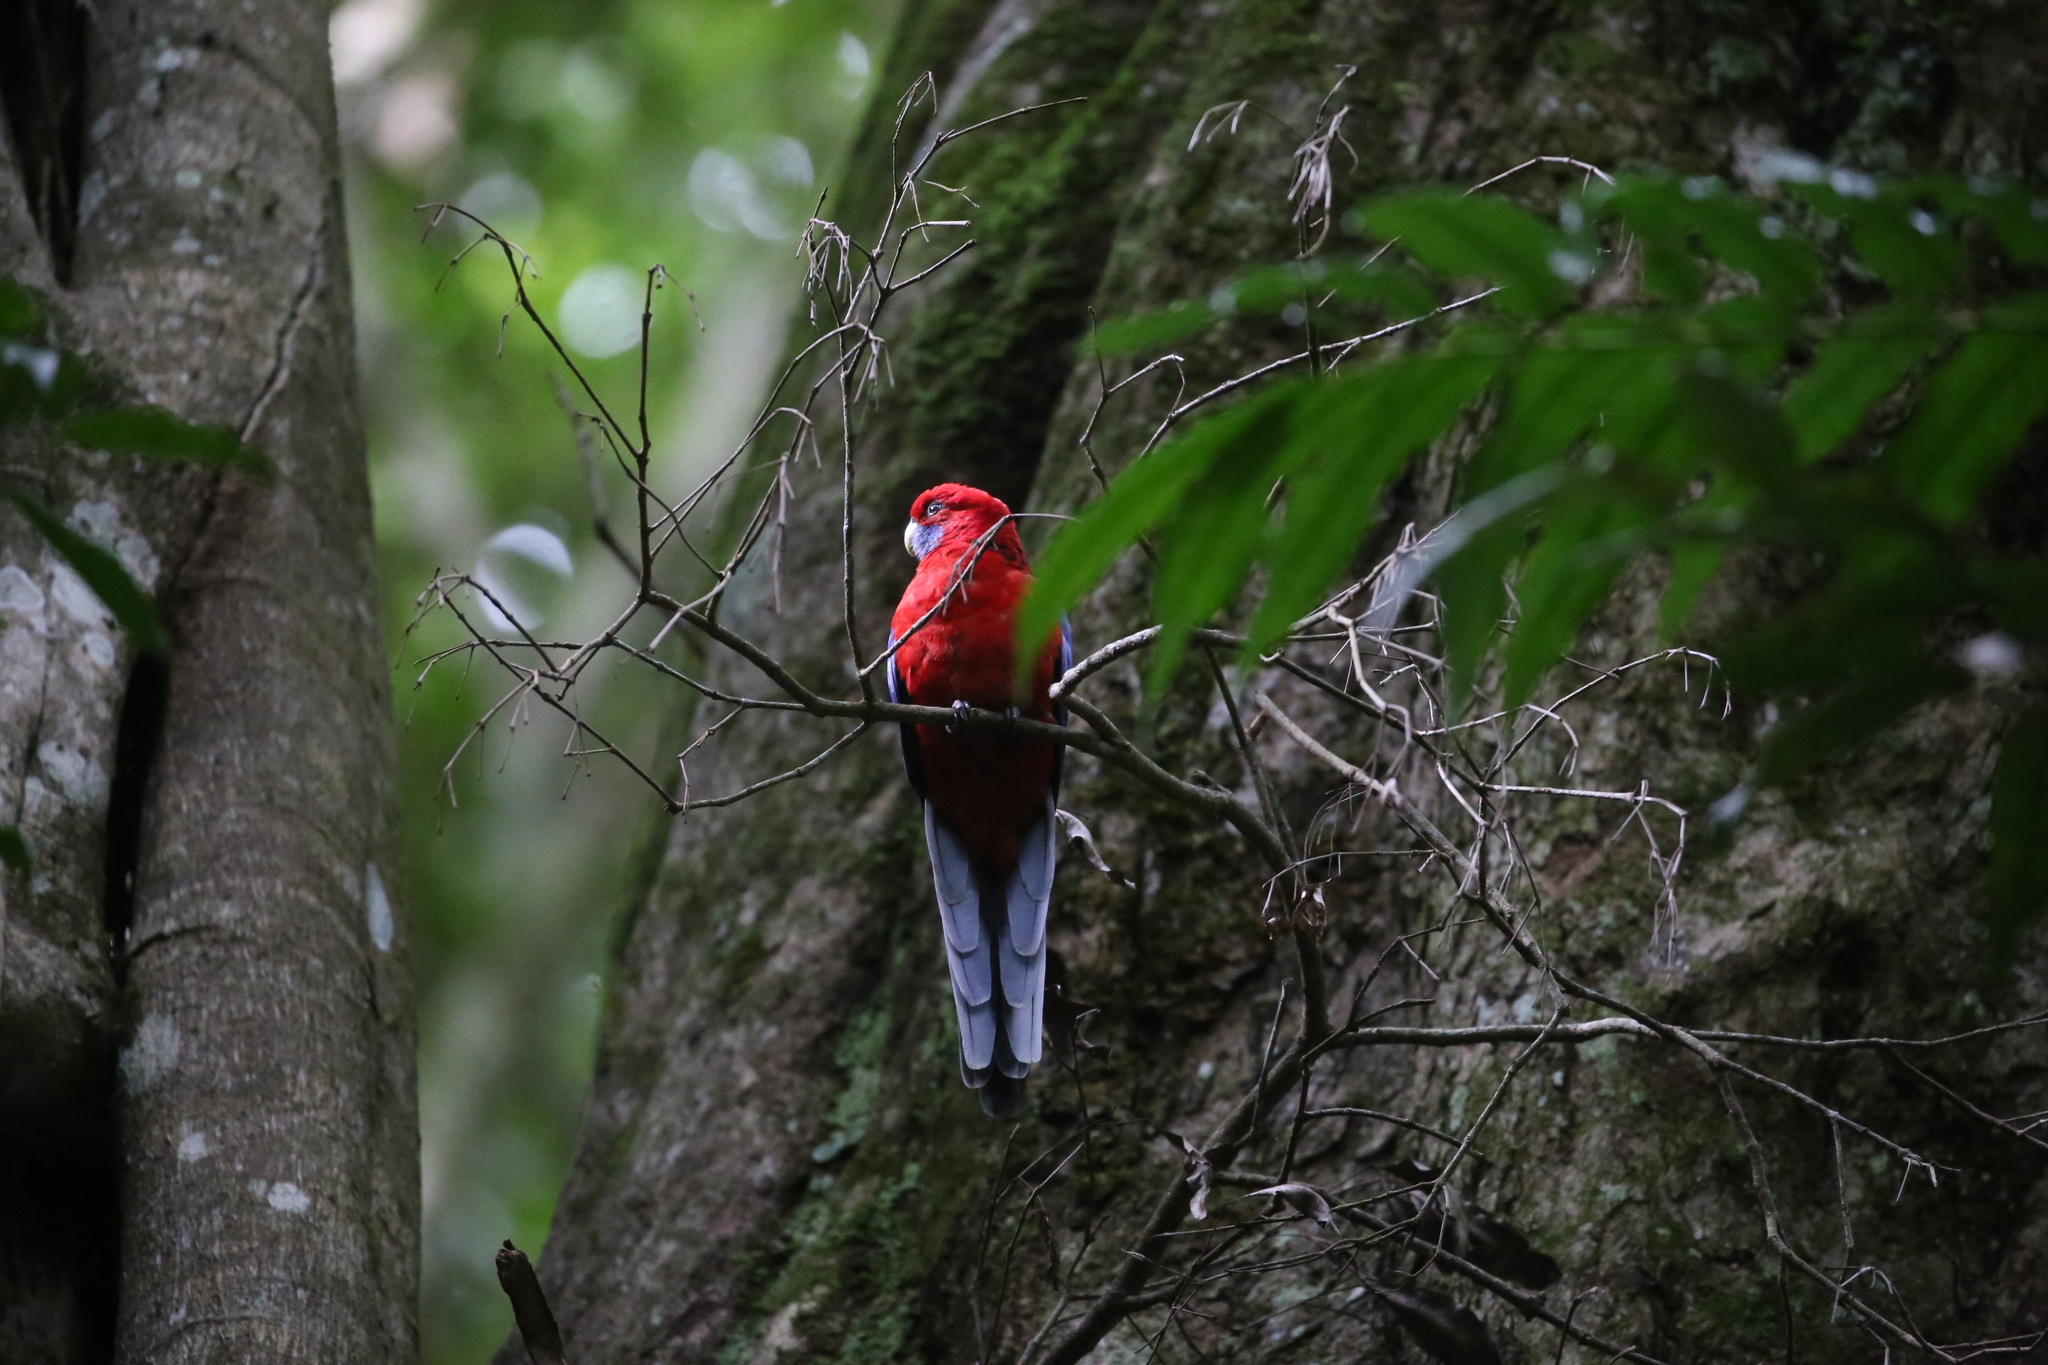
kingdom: Animalia
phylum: Chordata
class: Aves
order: Psittaciformes
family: Psittacidae
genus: Platycercus
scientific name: Platycercus elegans
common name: Crimson rosella
